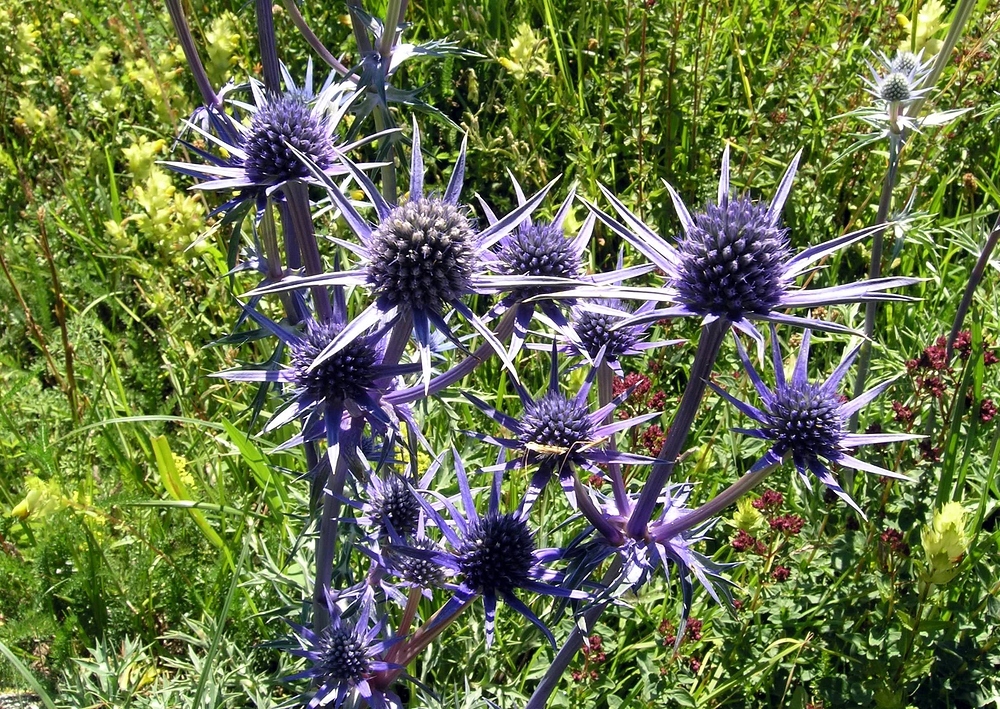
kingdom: Plantae
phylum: Tracheophyta
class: Magnoliopsida
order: Apiales
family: Apiaceae
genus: Eryngium
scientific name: Eryngium bourgatii
